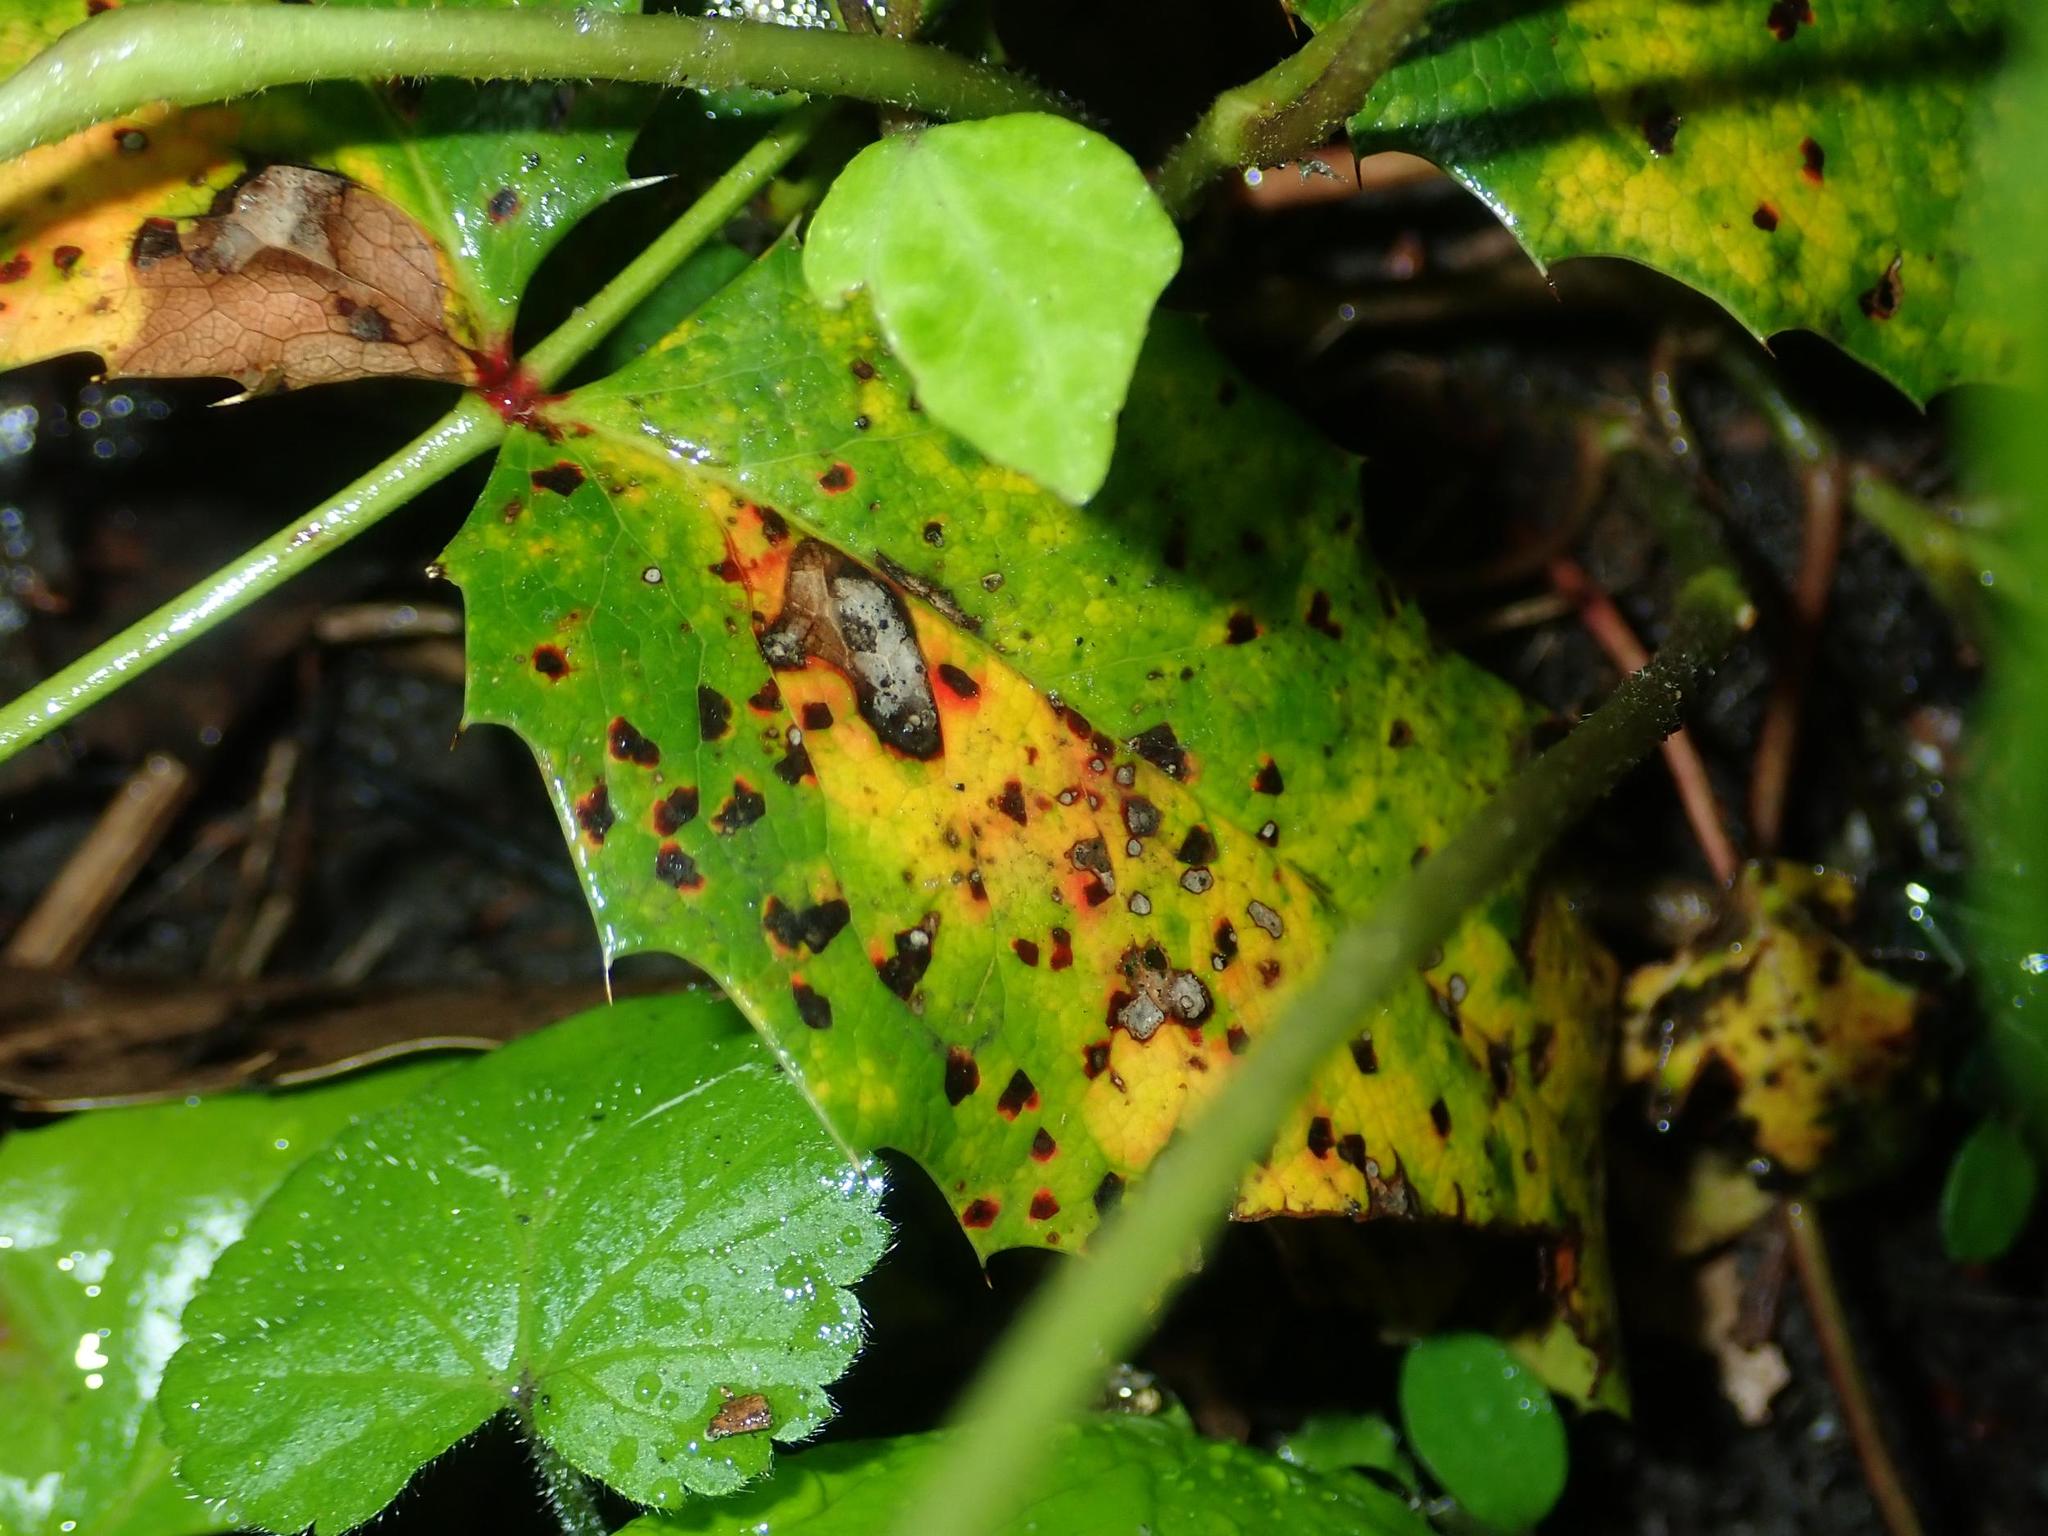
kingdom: Fungi
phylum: Basidiomycota
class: Pucciniomycetes
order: Pucciniales
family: Pucciniaceae
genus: Cumminsiella
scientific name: Cumminsiella mirabilissima
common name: Mahonia rust
